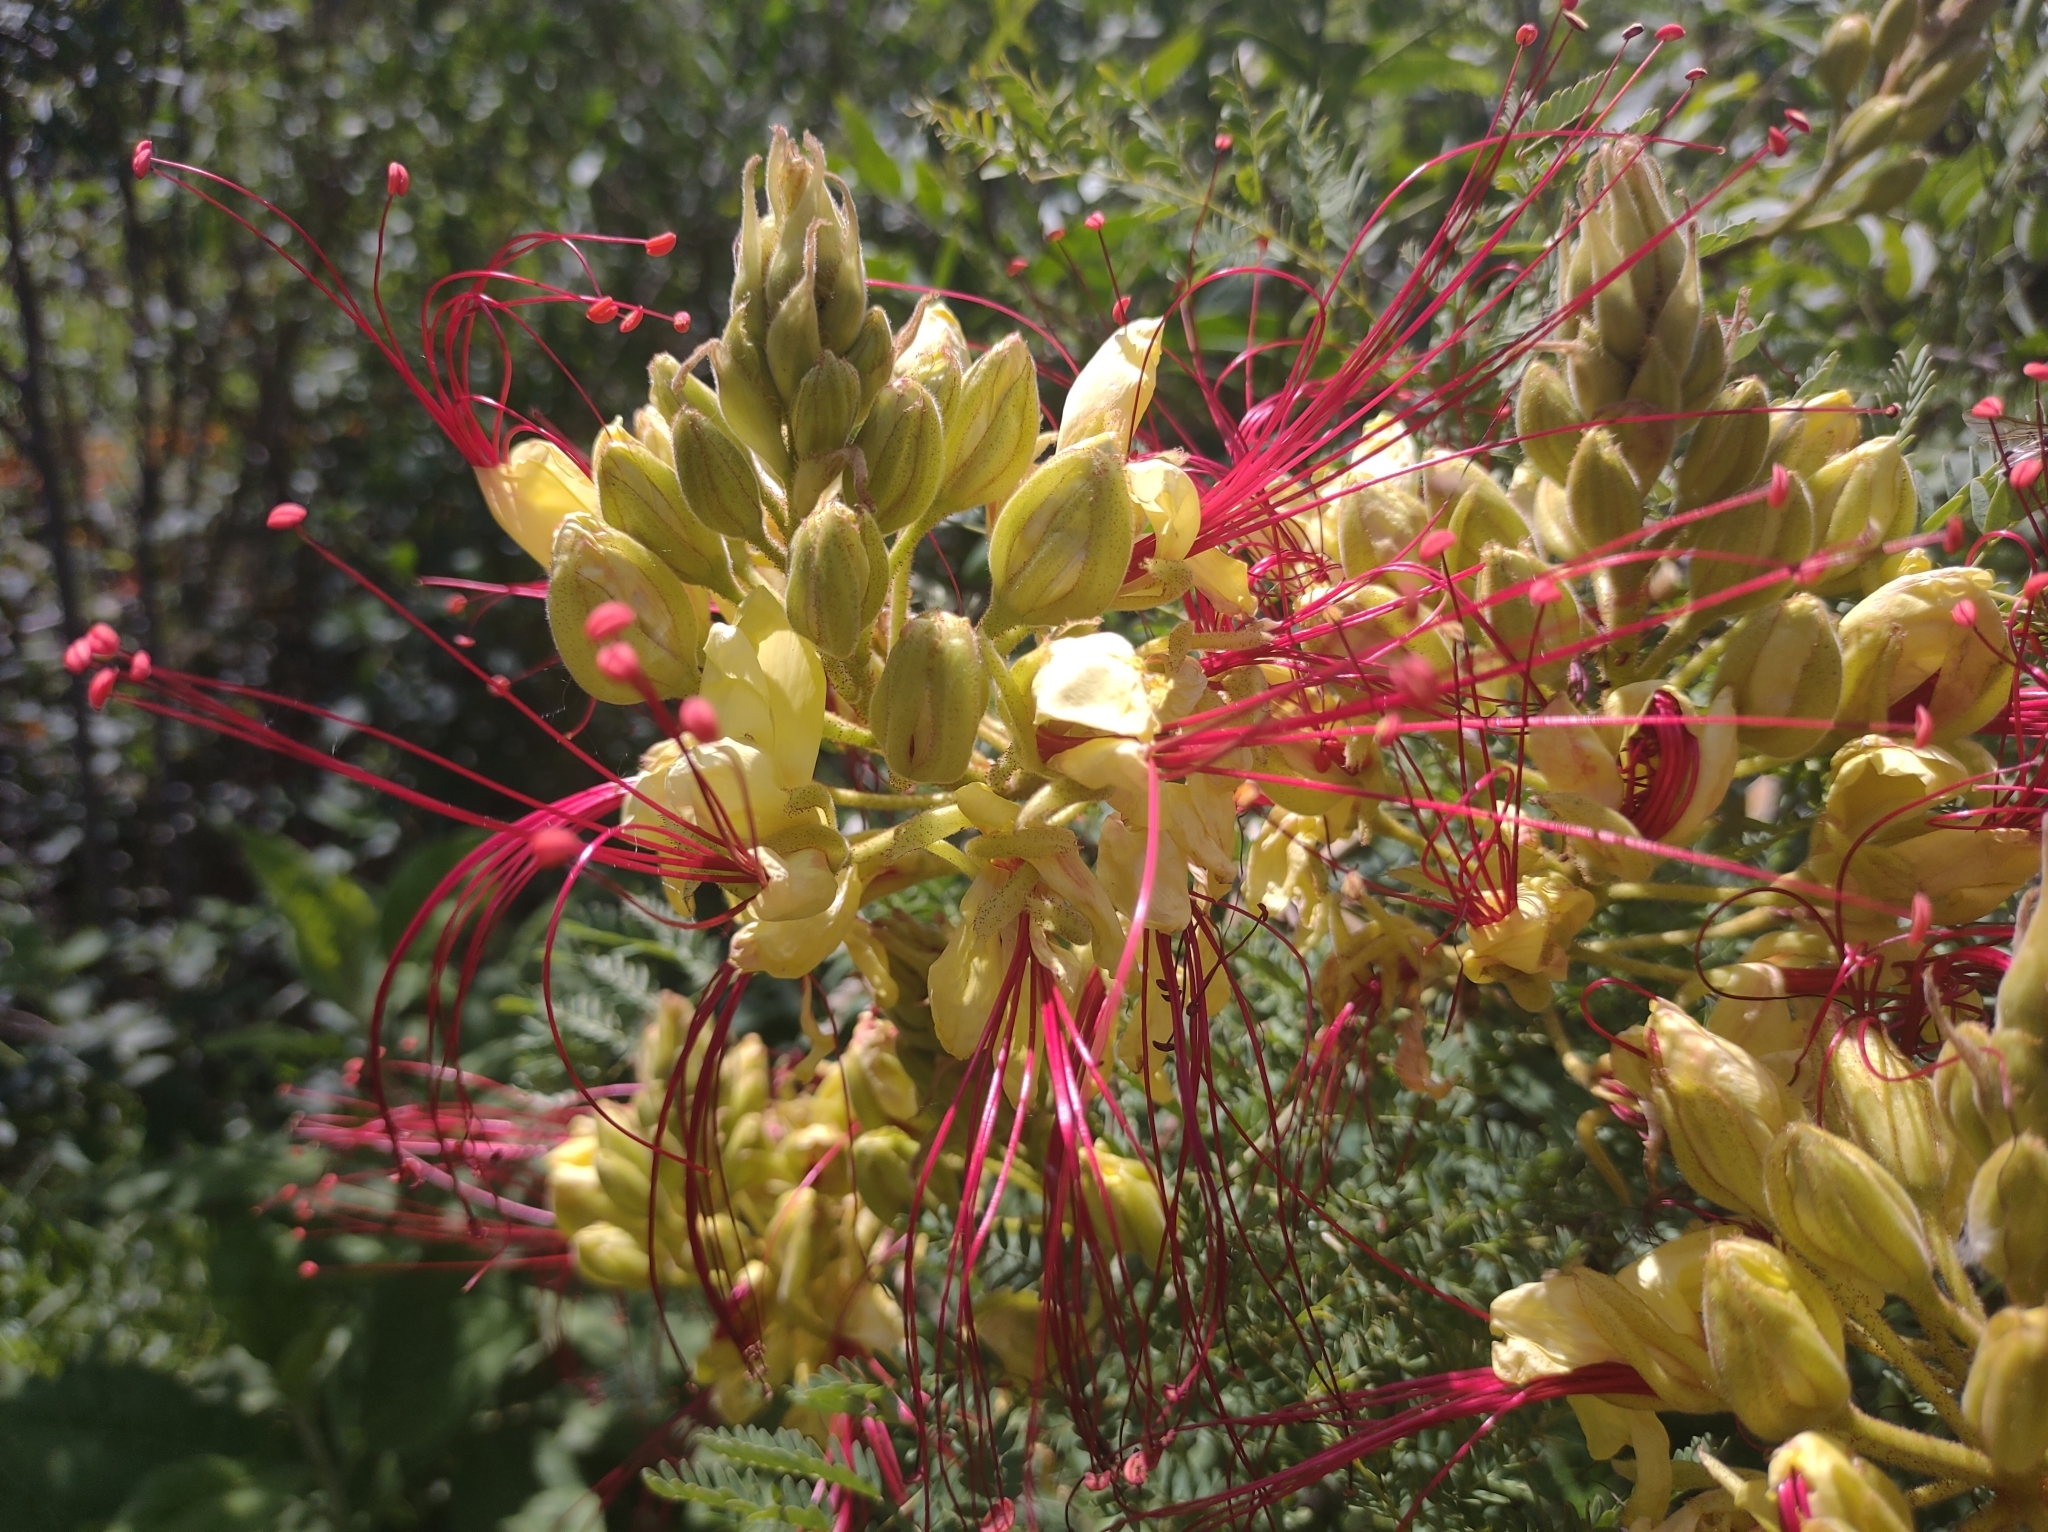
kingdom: Plantae
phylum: Tracheophyta
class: Magnoliopsida
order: Fabales
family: Fabaceae
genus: Erythrostemon
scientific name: Erythrostemon gilliesii
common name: Bird-of-paradise shrub
